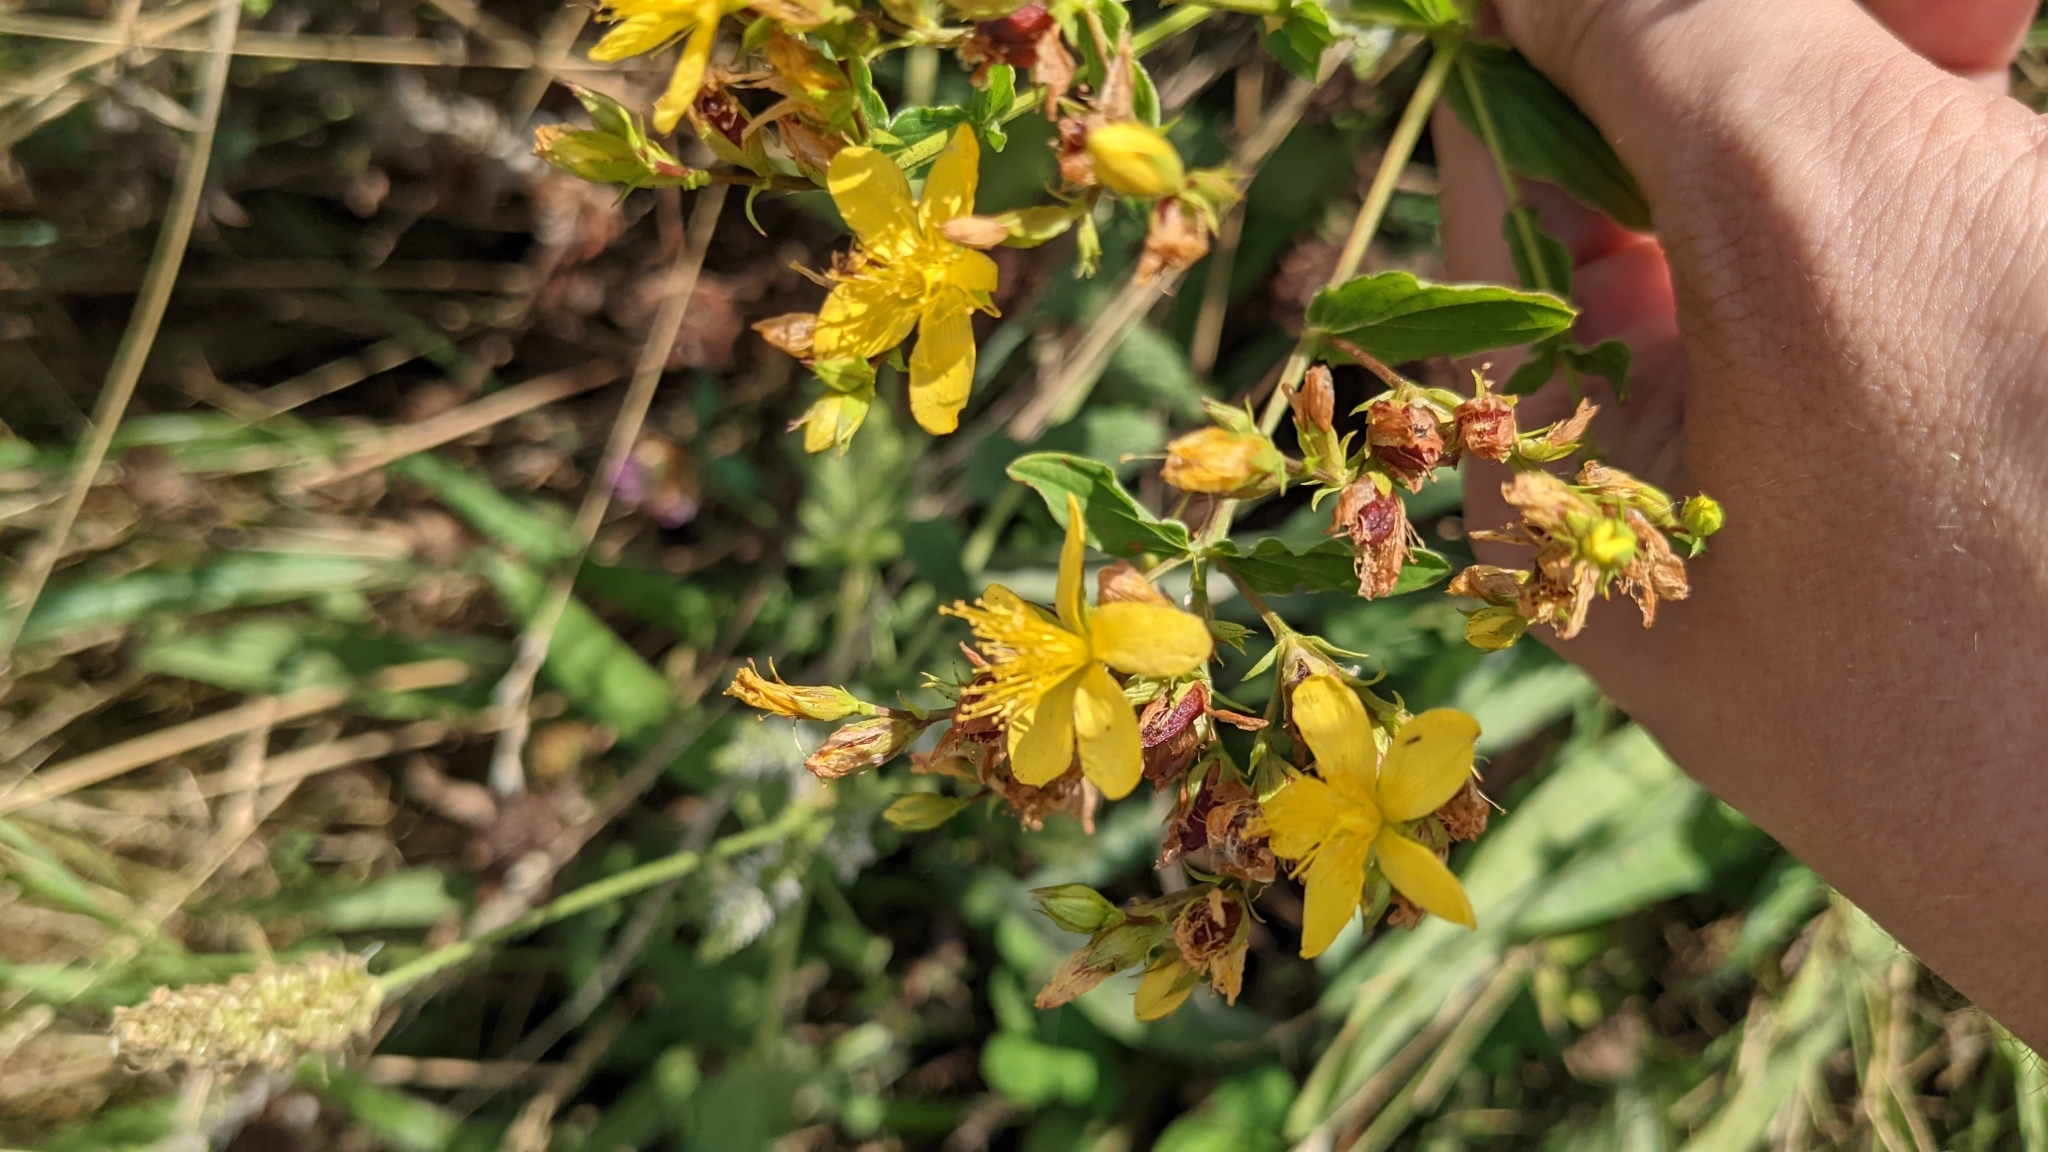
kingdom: Plantae
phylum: Tracheophyta
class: Magnoliopsida
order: Malpighiales
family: Hypericaceae
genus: Hypericum
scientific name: Hypericum perforatum
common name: Common st. johnswort
